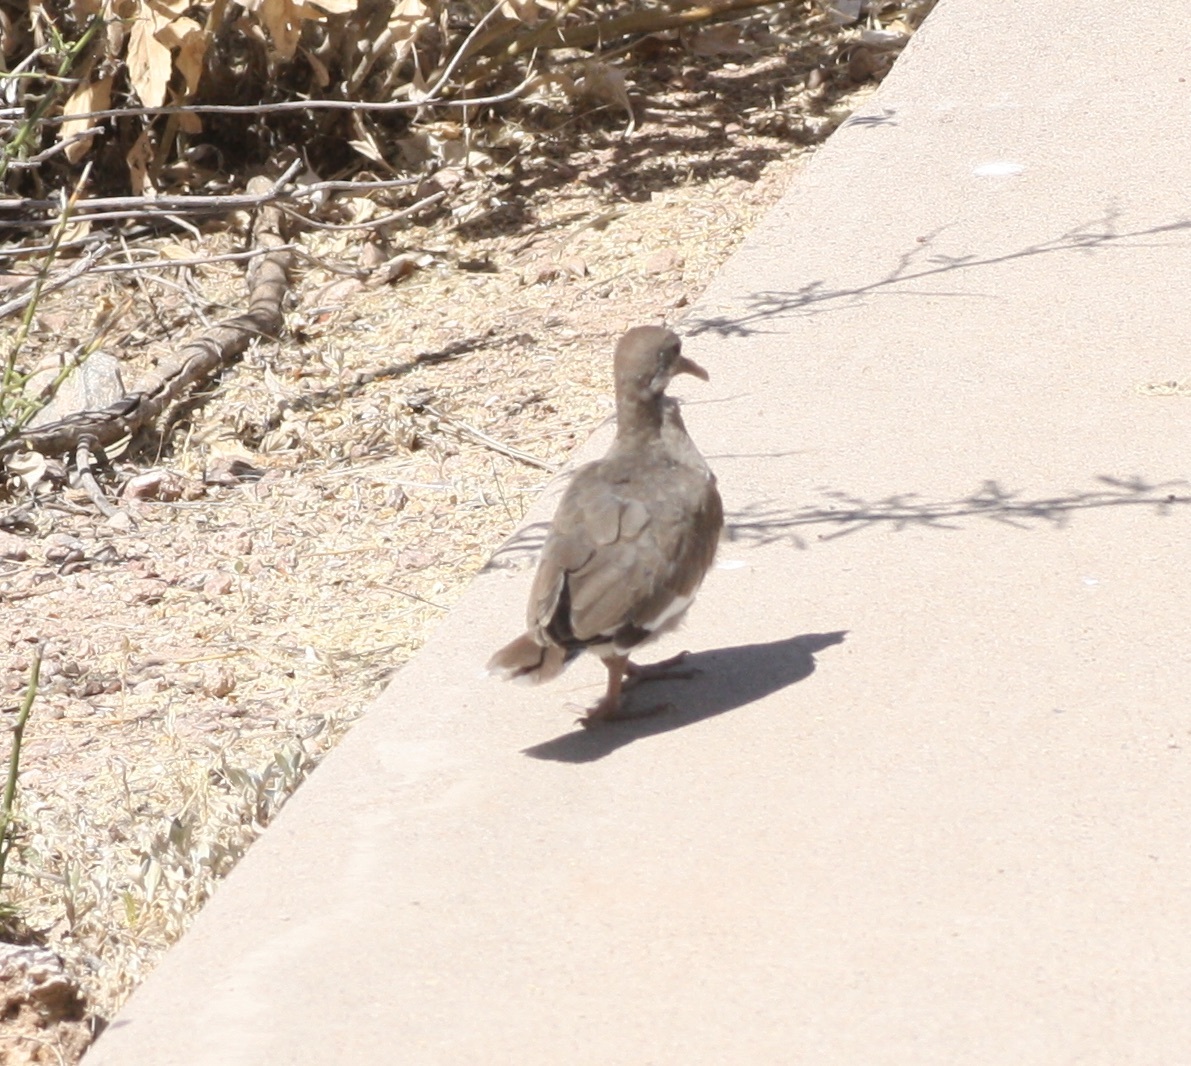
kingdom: Animalia
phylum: Chordata
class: Aves
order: Columbiformes
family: Columbidae
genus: Zenaida
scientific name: Zenaida asiatica
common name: White-winged dove
